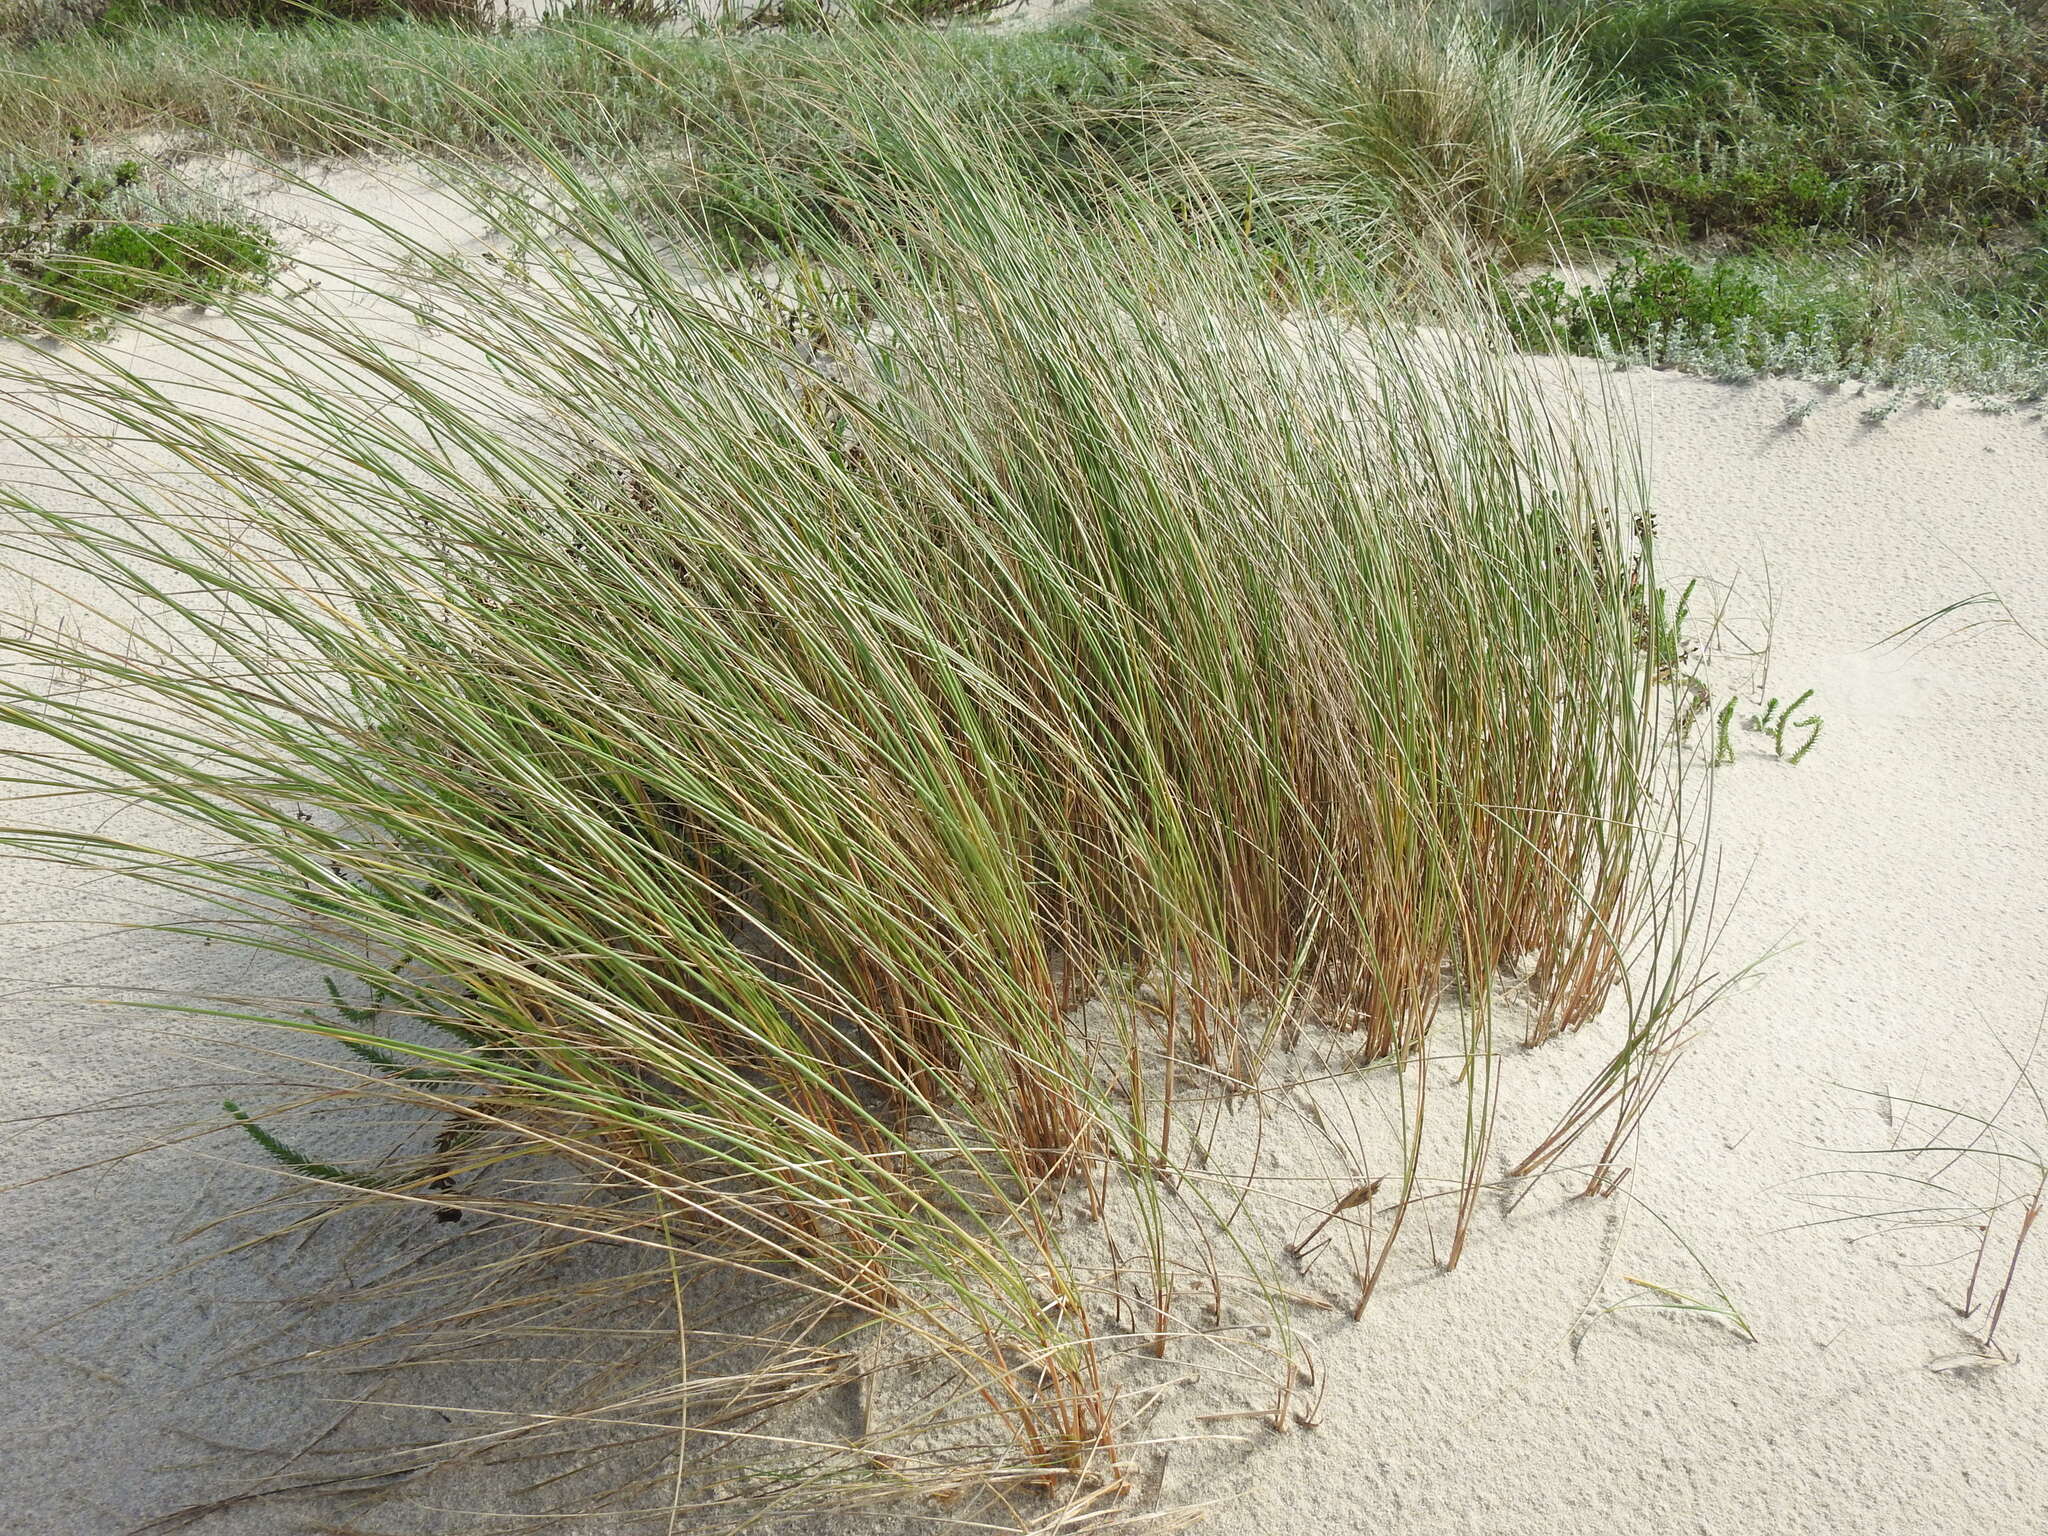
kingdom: Plantae
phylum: Tracheophyta
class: Liliopsida
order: Poales
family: Poaceae
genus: Calamagrostis
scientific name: Calamagrostis arenaria
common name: European beachgrass
